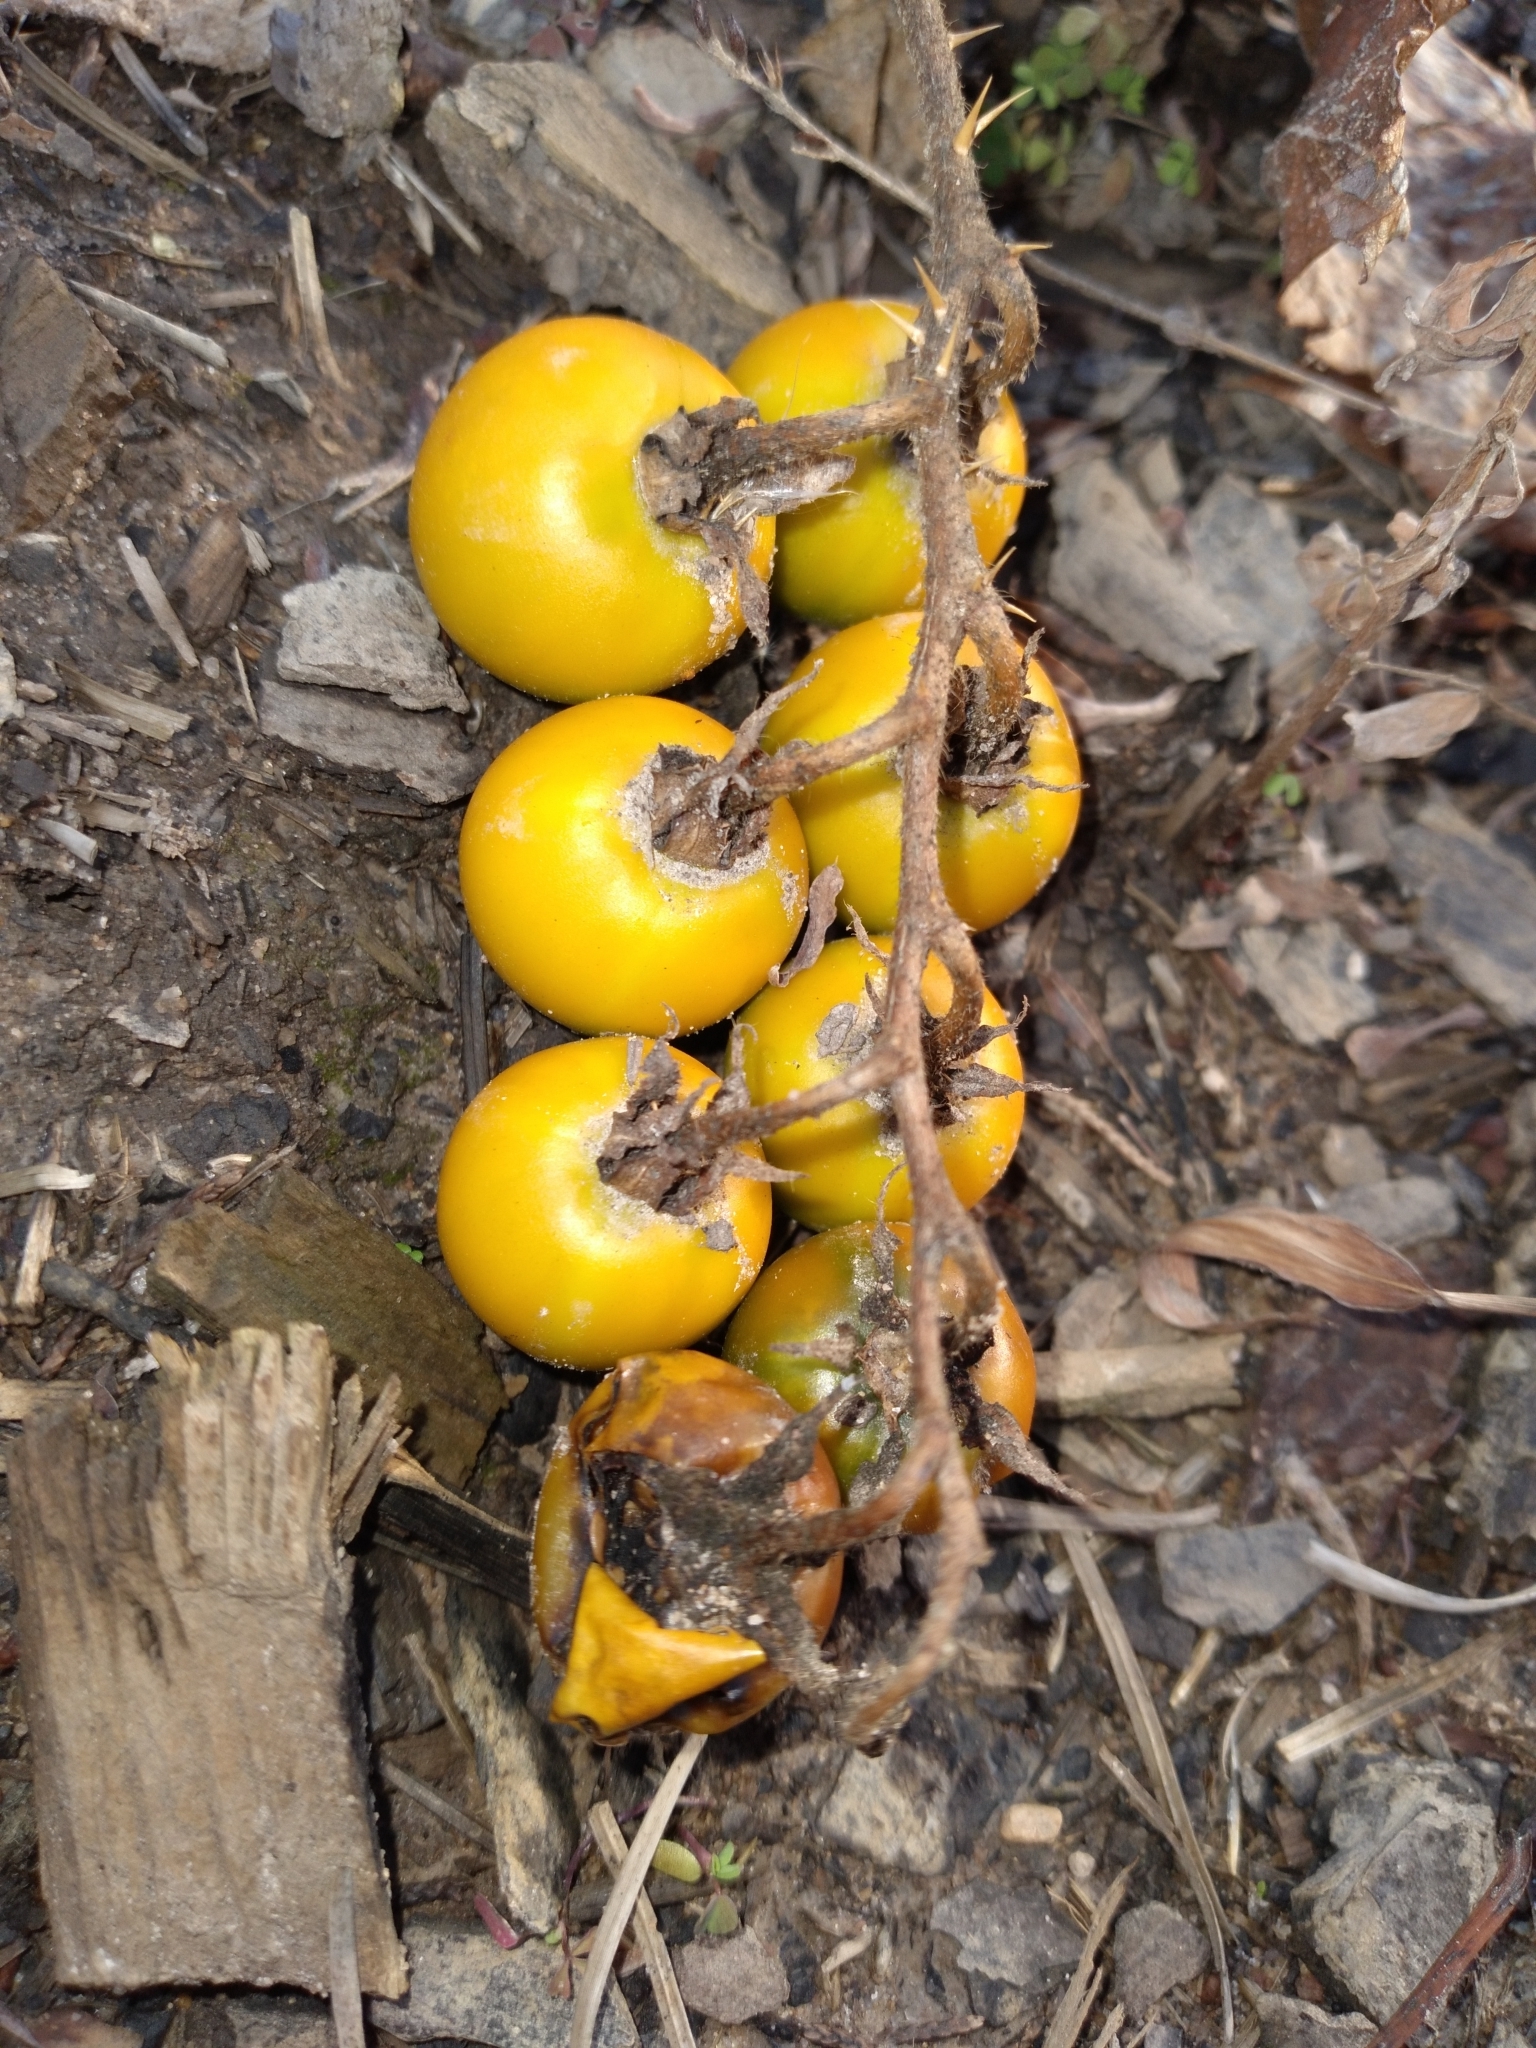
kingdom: Plantae
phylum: Tracheophyta
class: Magnoliopsida
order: Solanales
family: Solanaceae
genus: Solanum
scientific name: Solanum carolinense
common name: Horse-nettle
